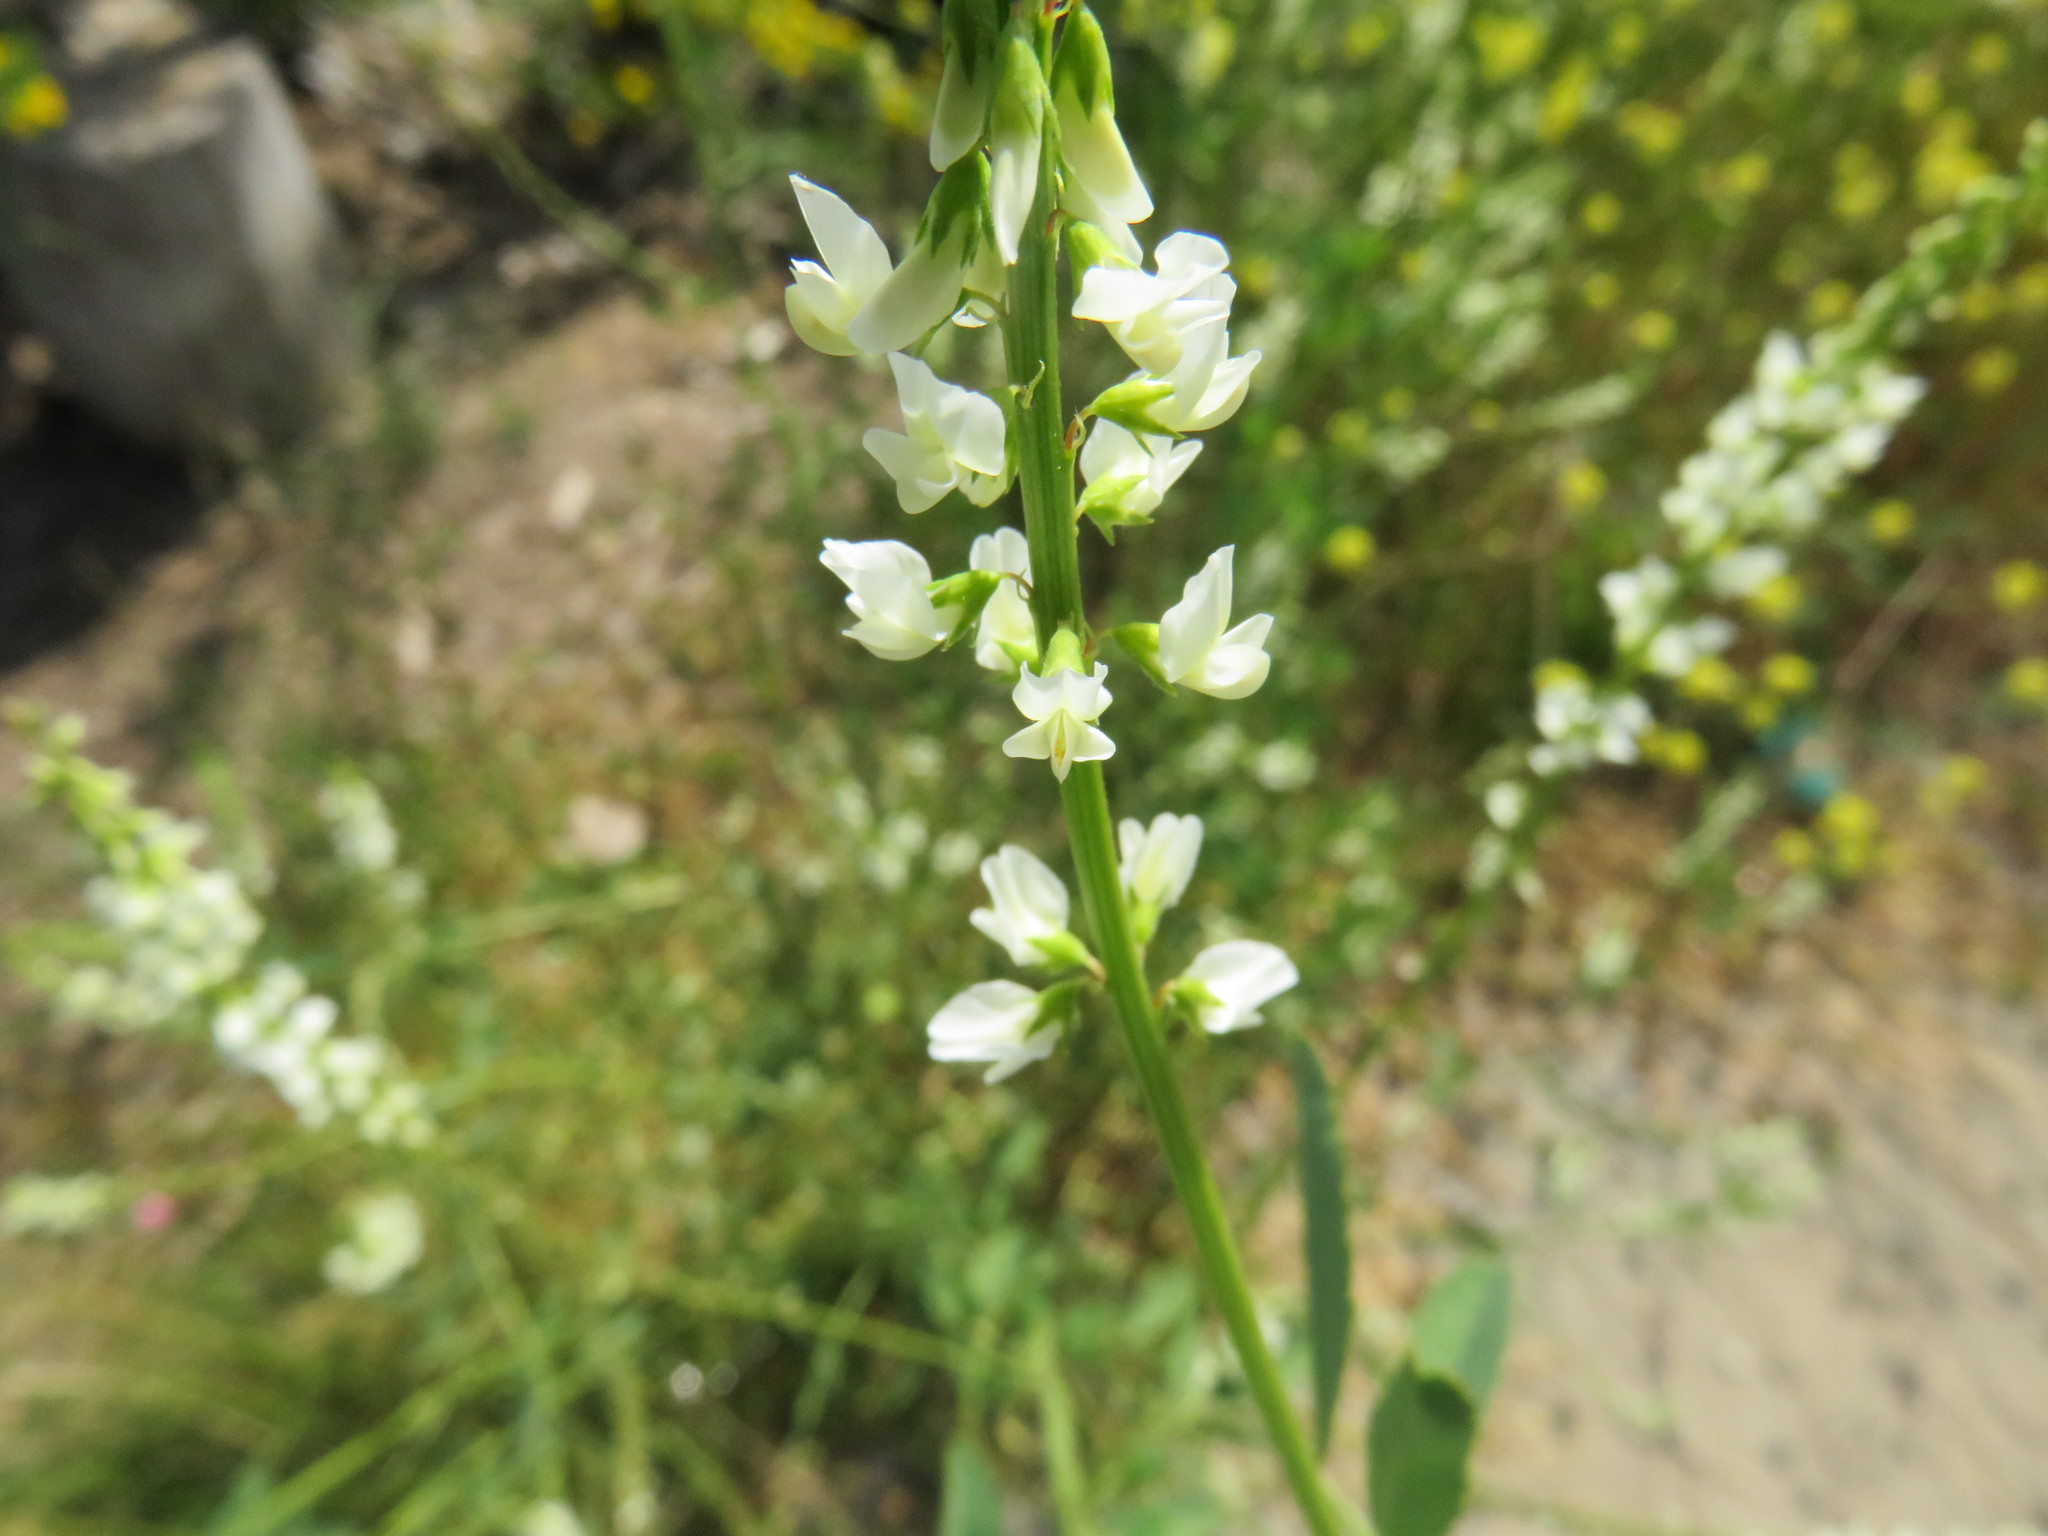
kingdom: Plantae
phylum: Tracheophyta
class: Magnoliopsida
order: Fabales
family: Fabaceae
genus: Melilotus
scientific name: Melilotus albus
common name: White melilot
